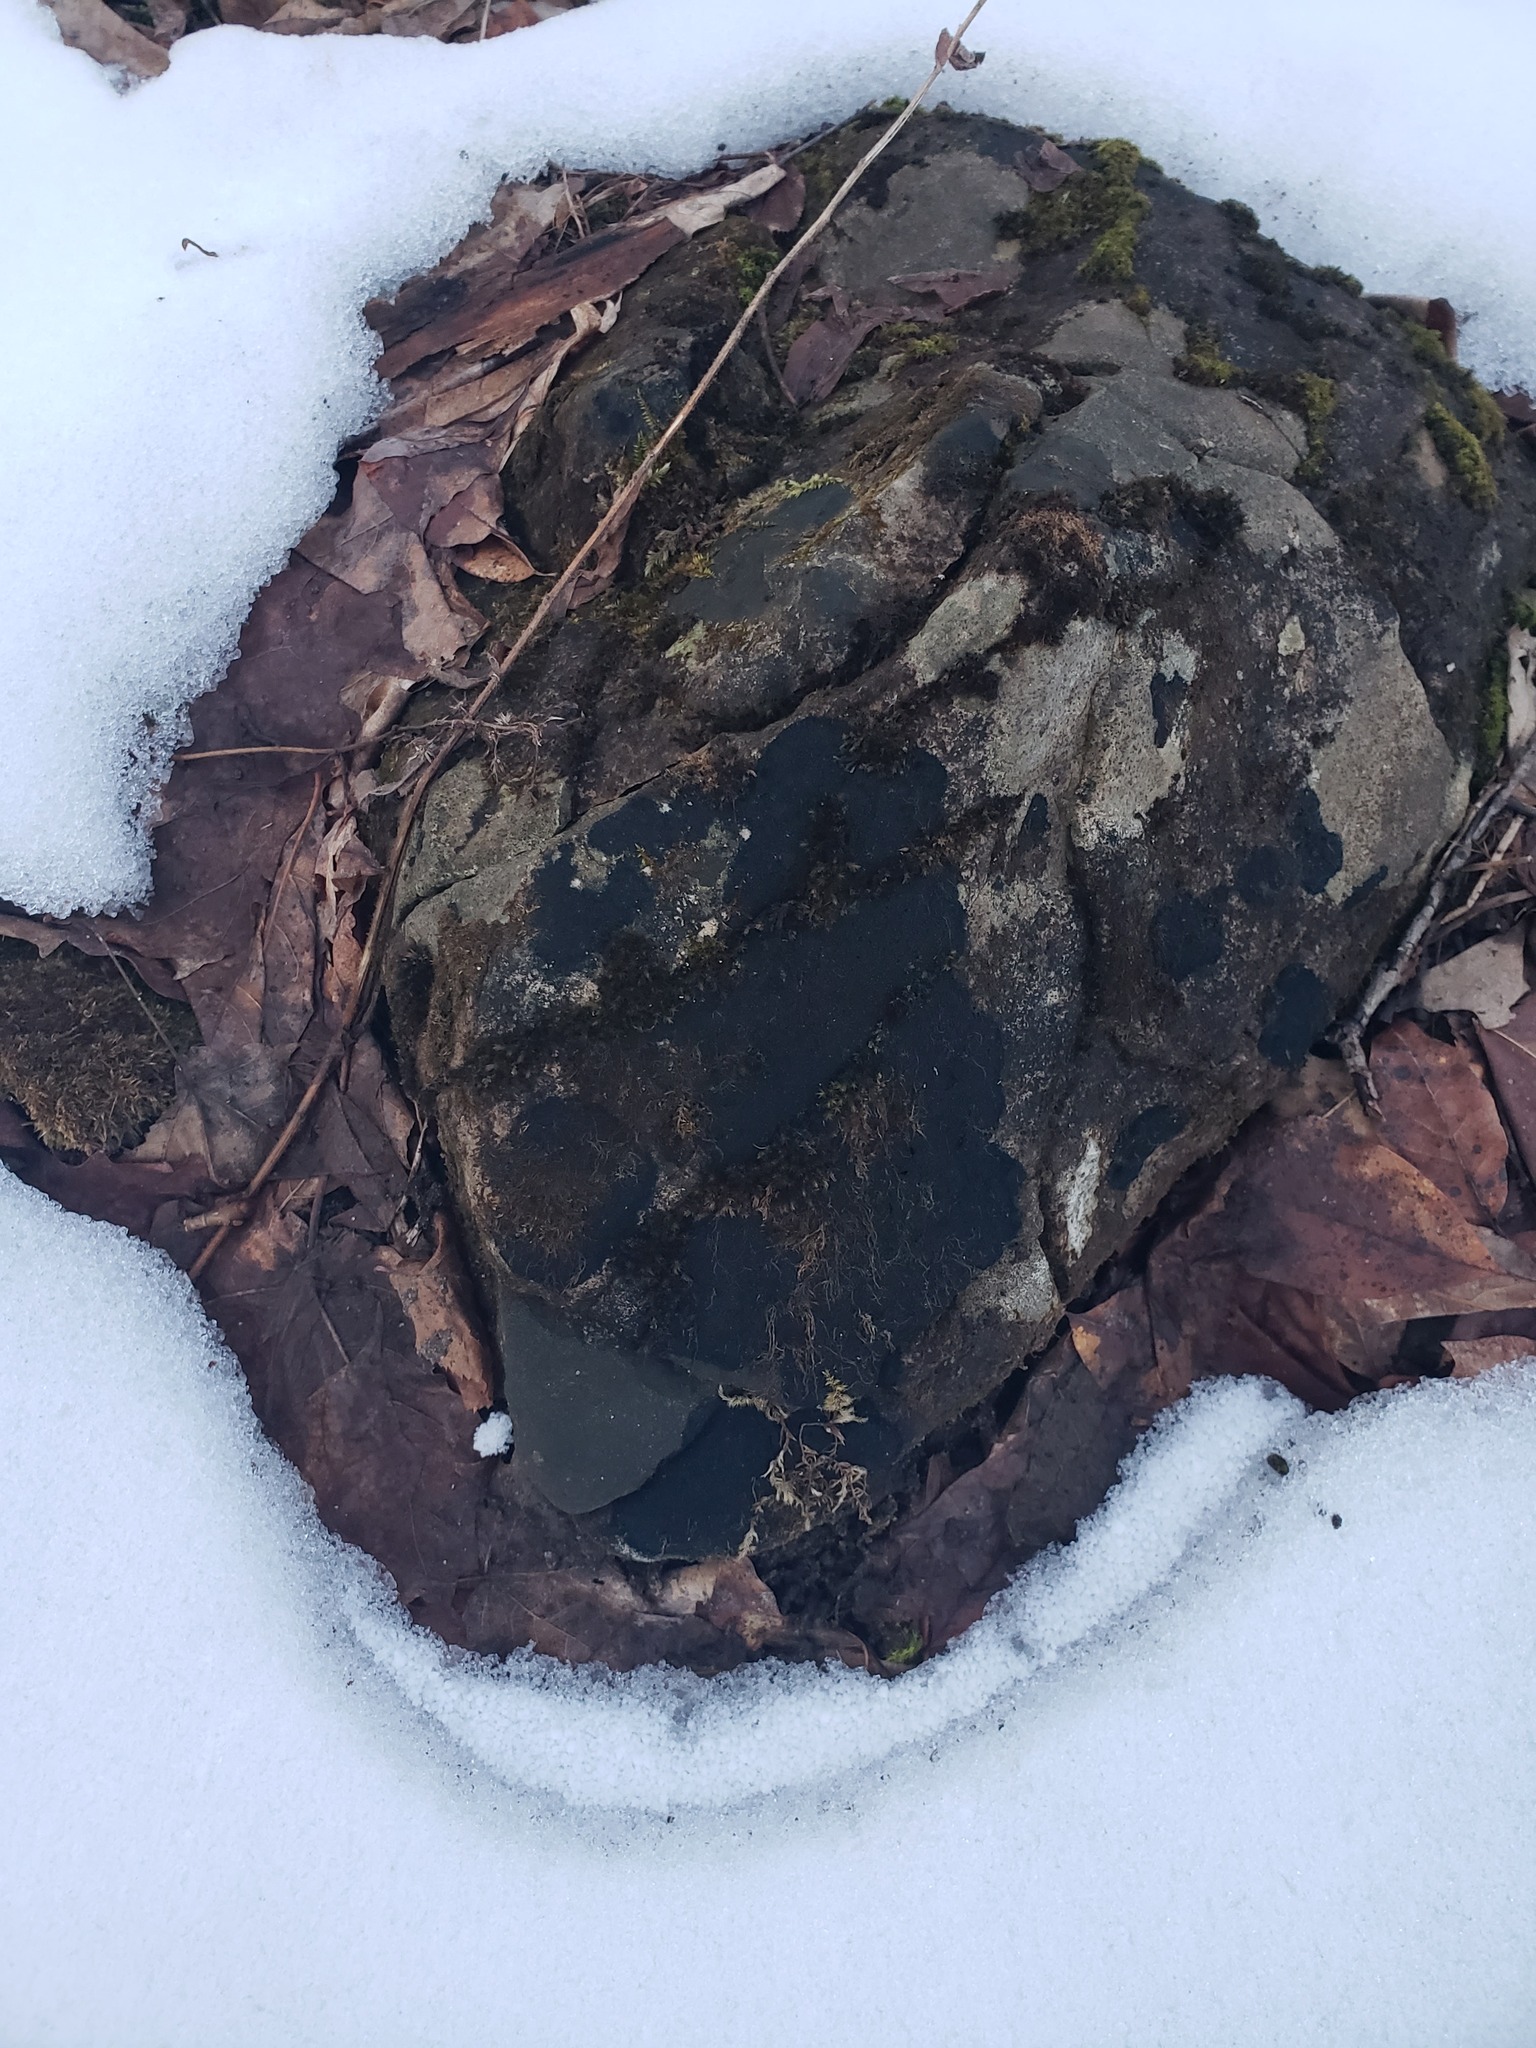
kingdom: Fungi
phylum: Ascomycota
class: Lecanoromycetes
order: Peltigerales
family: Placynthiaceae
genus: Placynthium
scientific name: Placynthium nigrum
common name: Blackthread lichen
